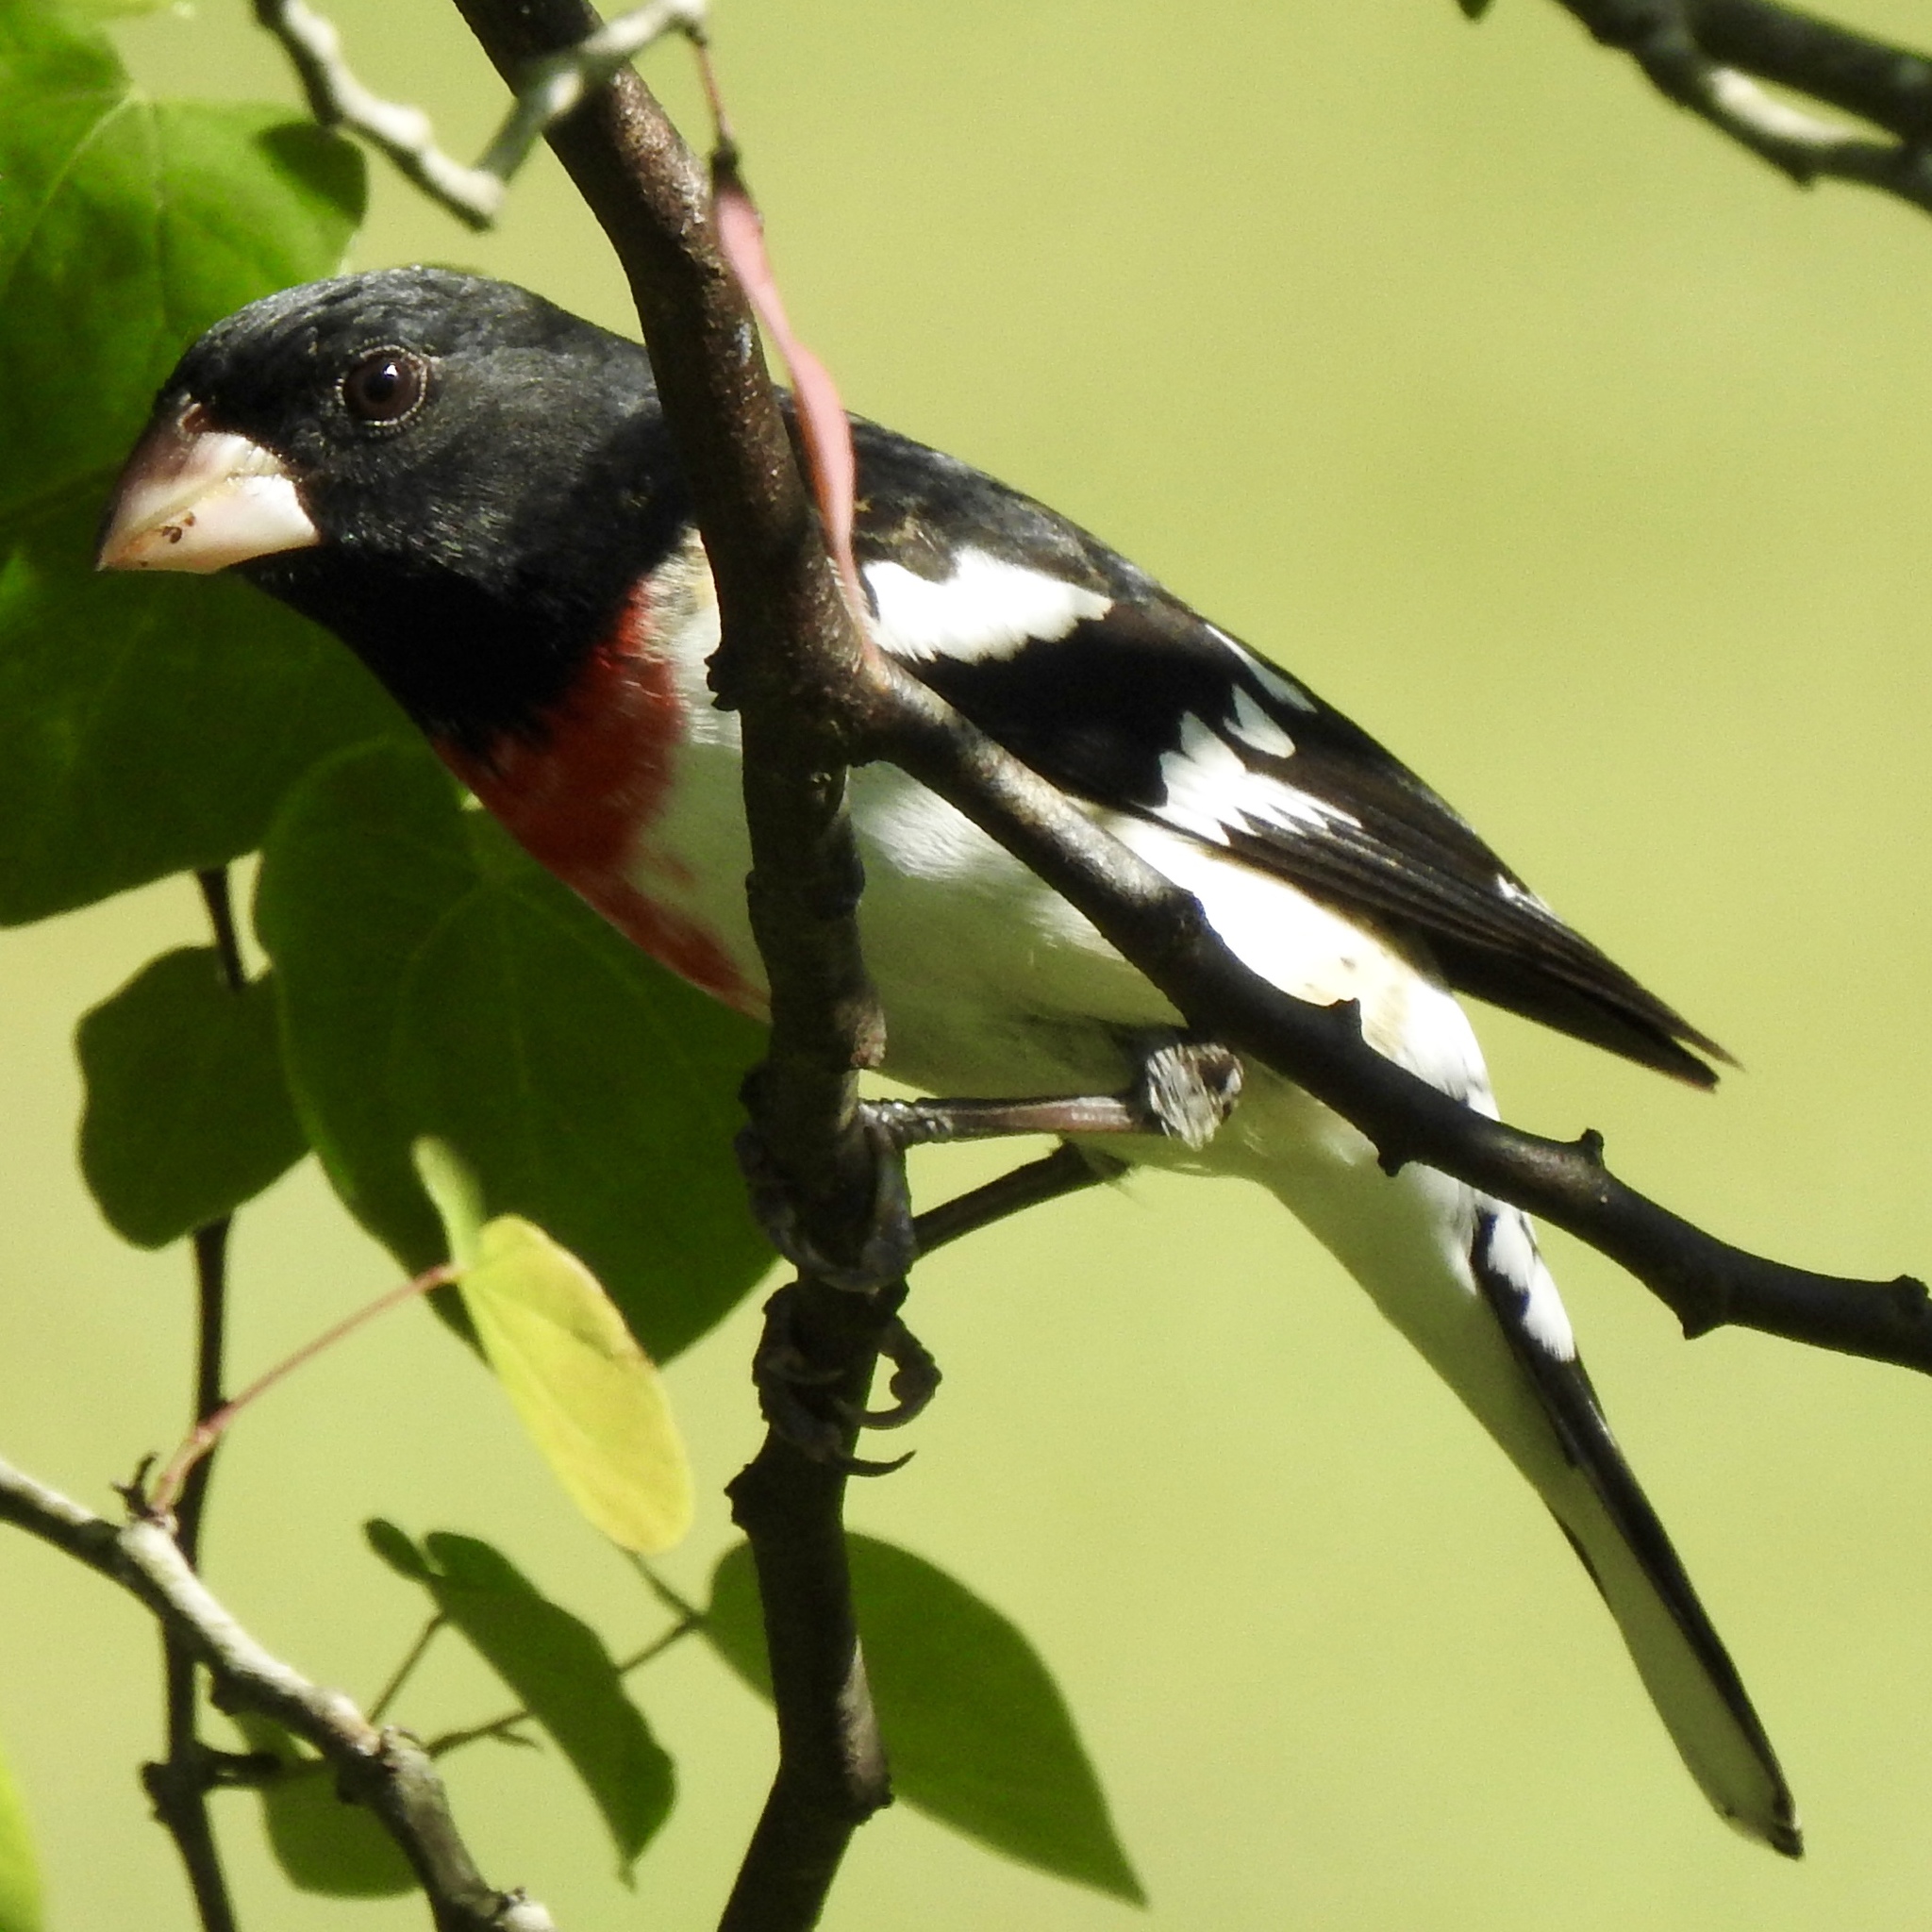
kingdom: Animalia
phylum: Chordata
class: Aves
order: Passeriformes
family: Cardinalidae
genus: Pheucticus
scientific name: Pheucticus ludovicianus
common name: Rose-breasted grosbeak
